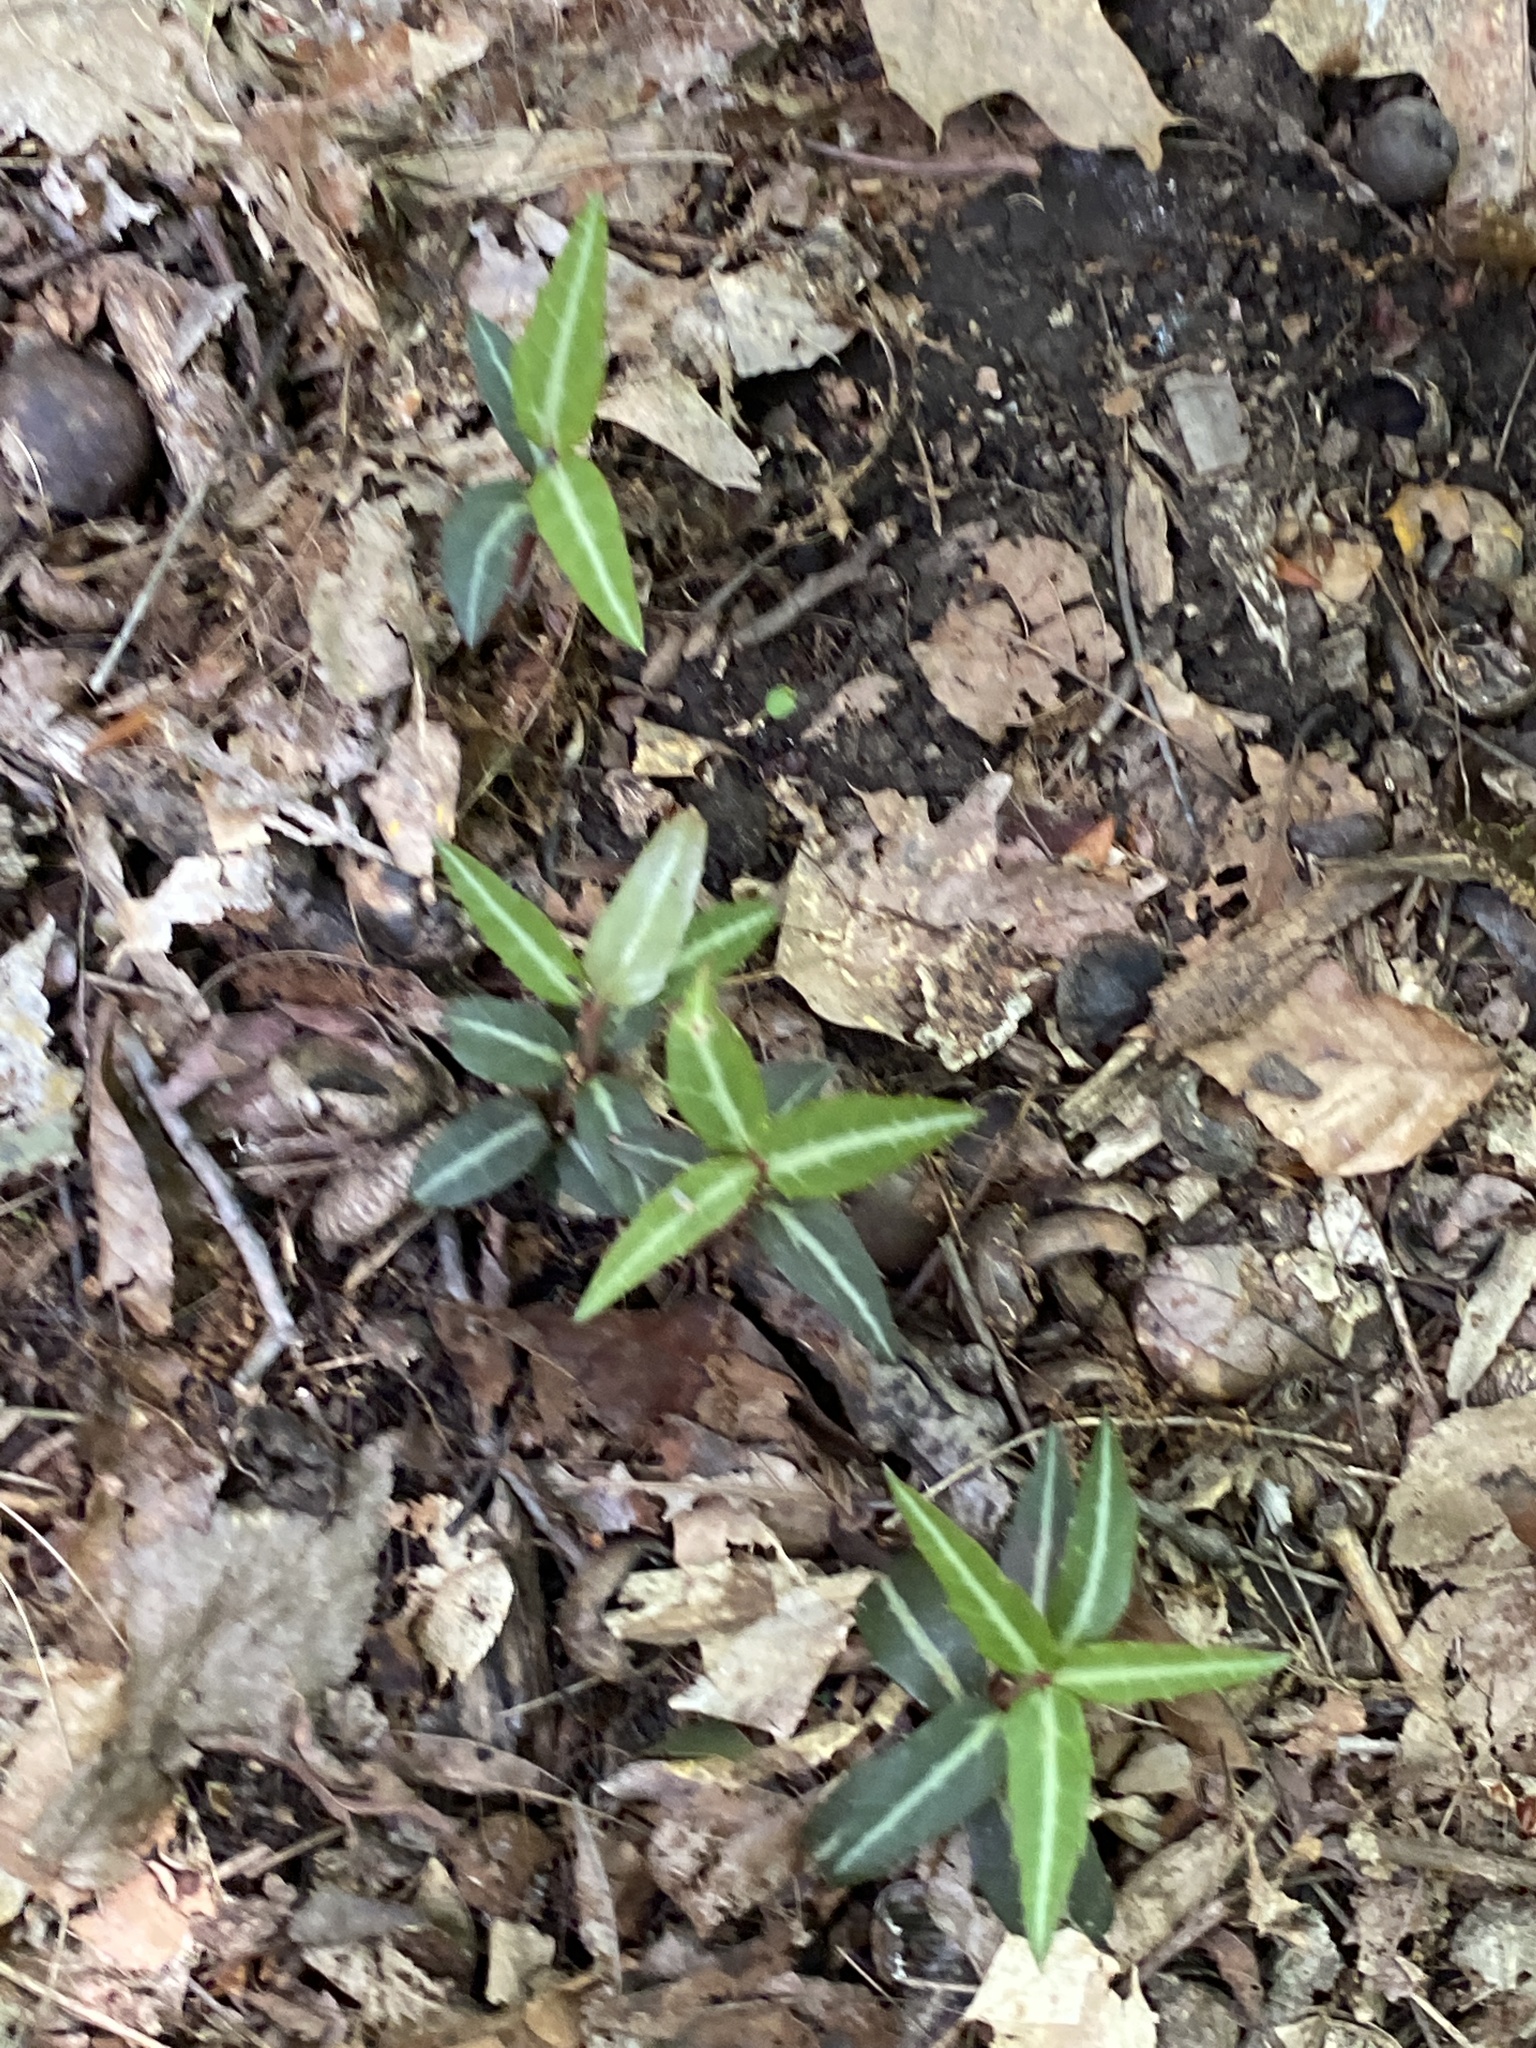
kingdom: Plantae
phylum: Tracheophyta
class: Magnoliopsida
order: Ericales
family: Ericaceae
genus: Chimaphila
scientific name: Chimaphila maculata
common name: Spotted pipsissewa
